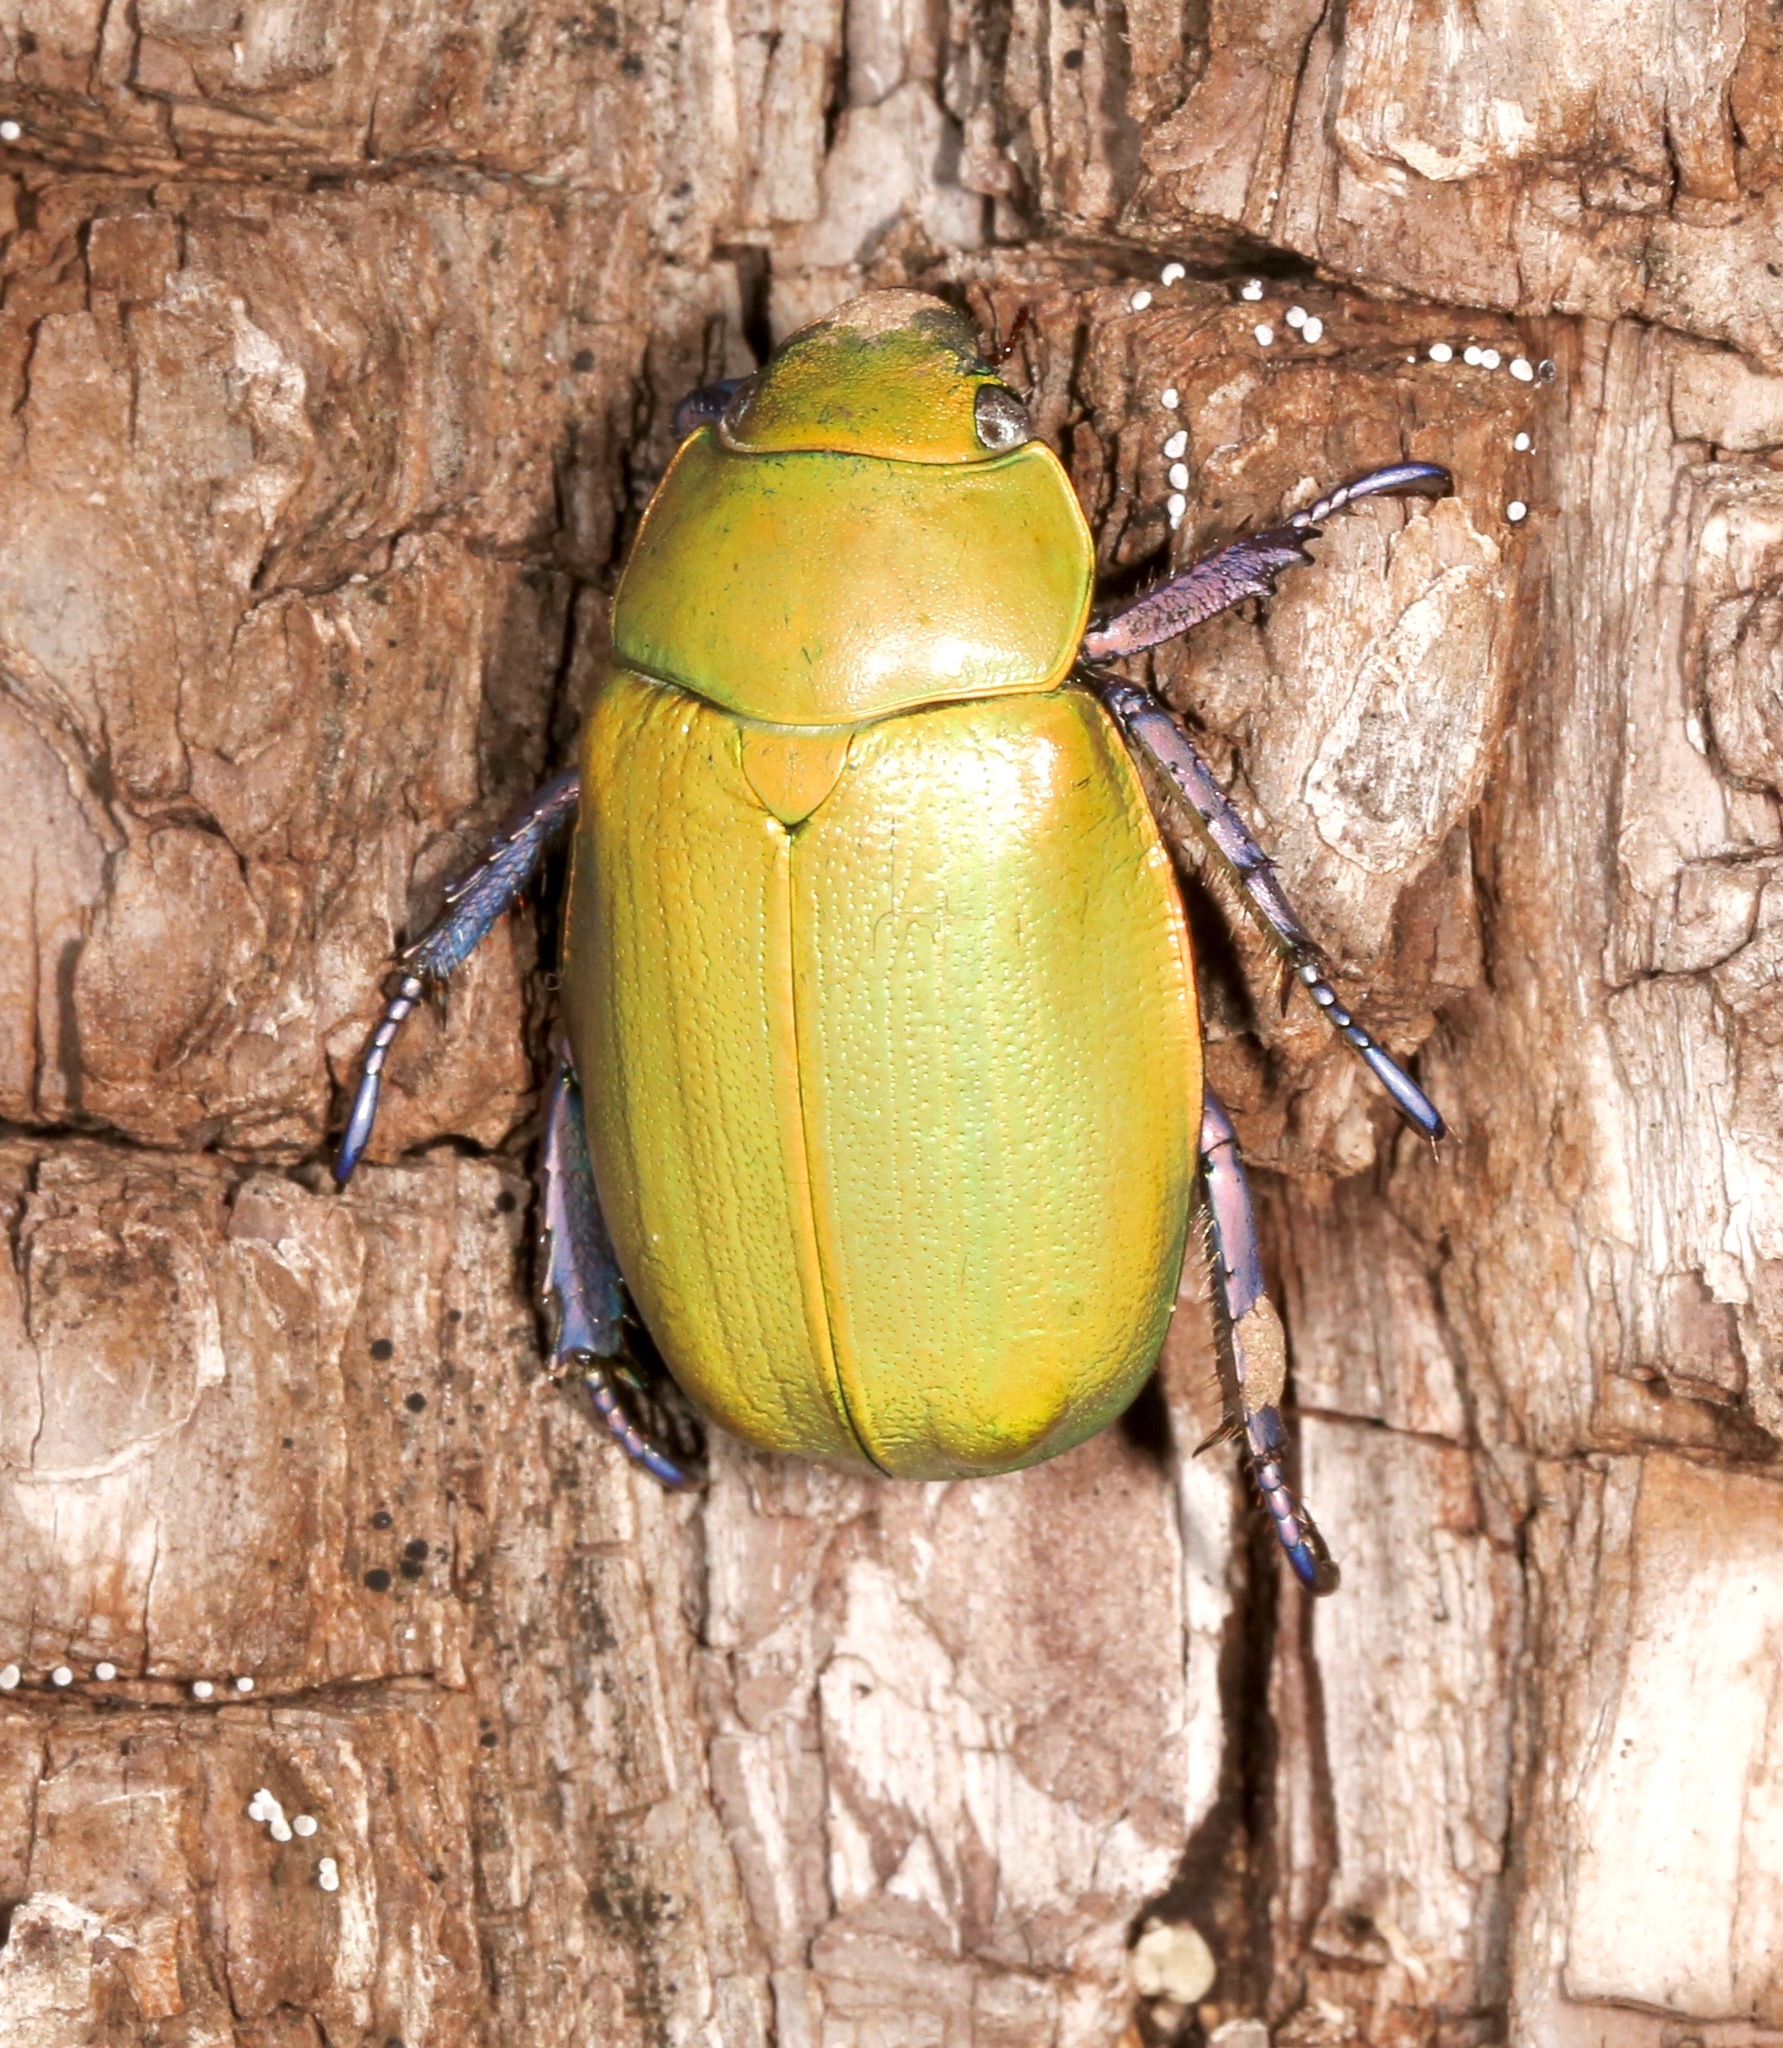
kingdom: Animalia
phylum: Arthropoda
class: Insecta
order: Coleoptera
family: Scarabaeidae
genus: Chrysina
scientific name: Chrysina beyeri
